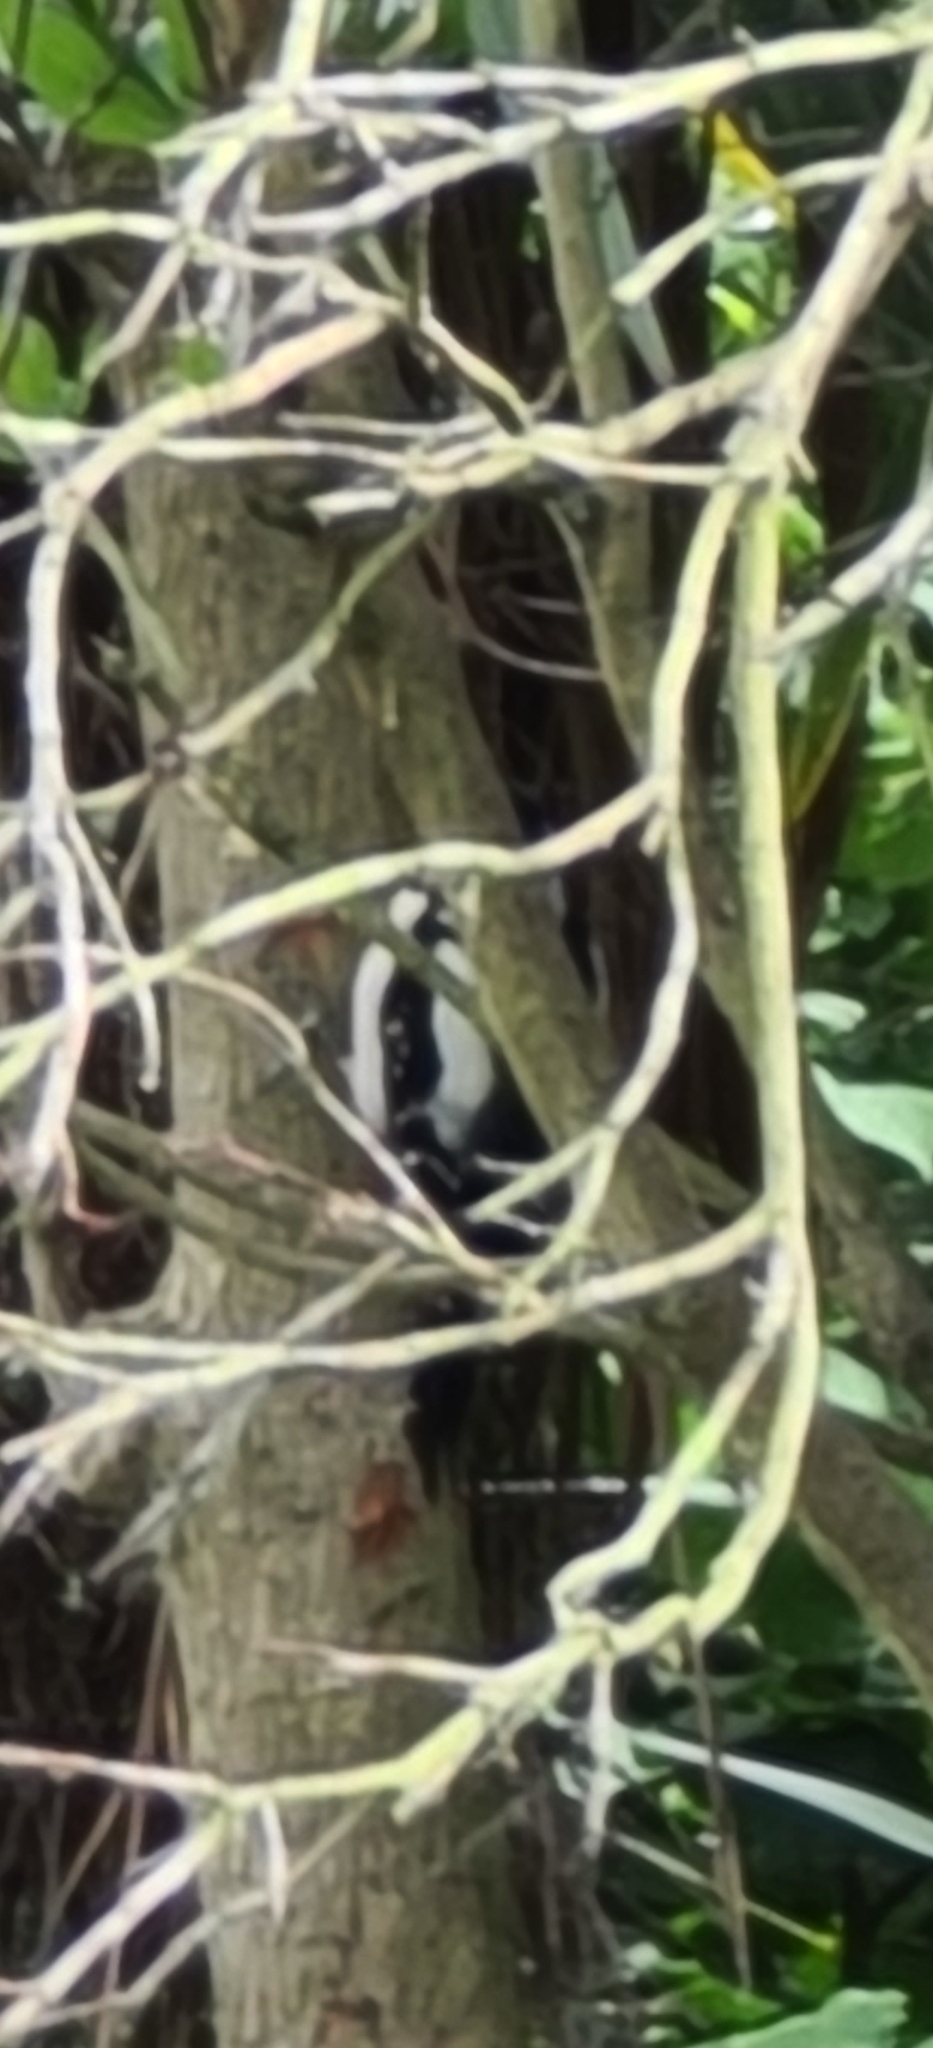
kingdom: Animalia
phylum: Chordata
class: Aves
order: Piciformes
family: Picidae
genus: Dendrocopos
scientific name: Dendrocopos major
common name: Great spotted woodpecker
